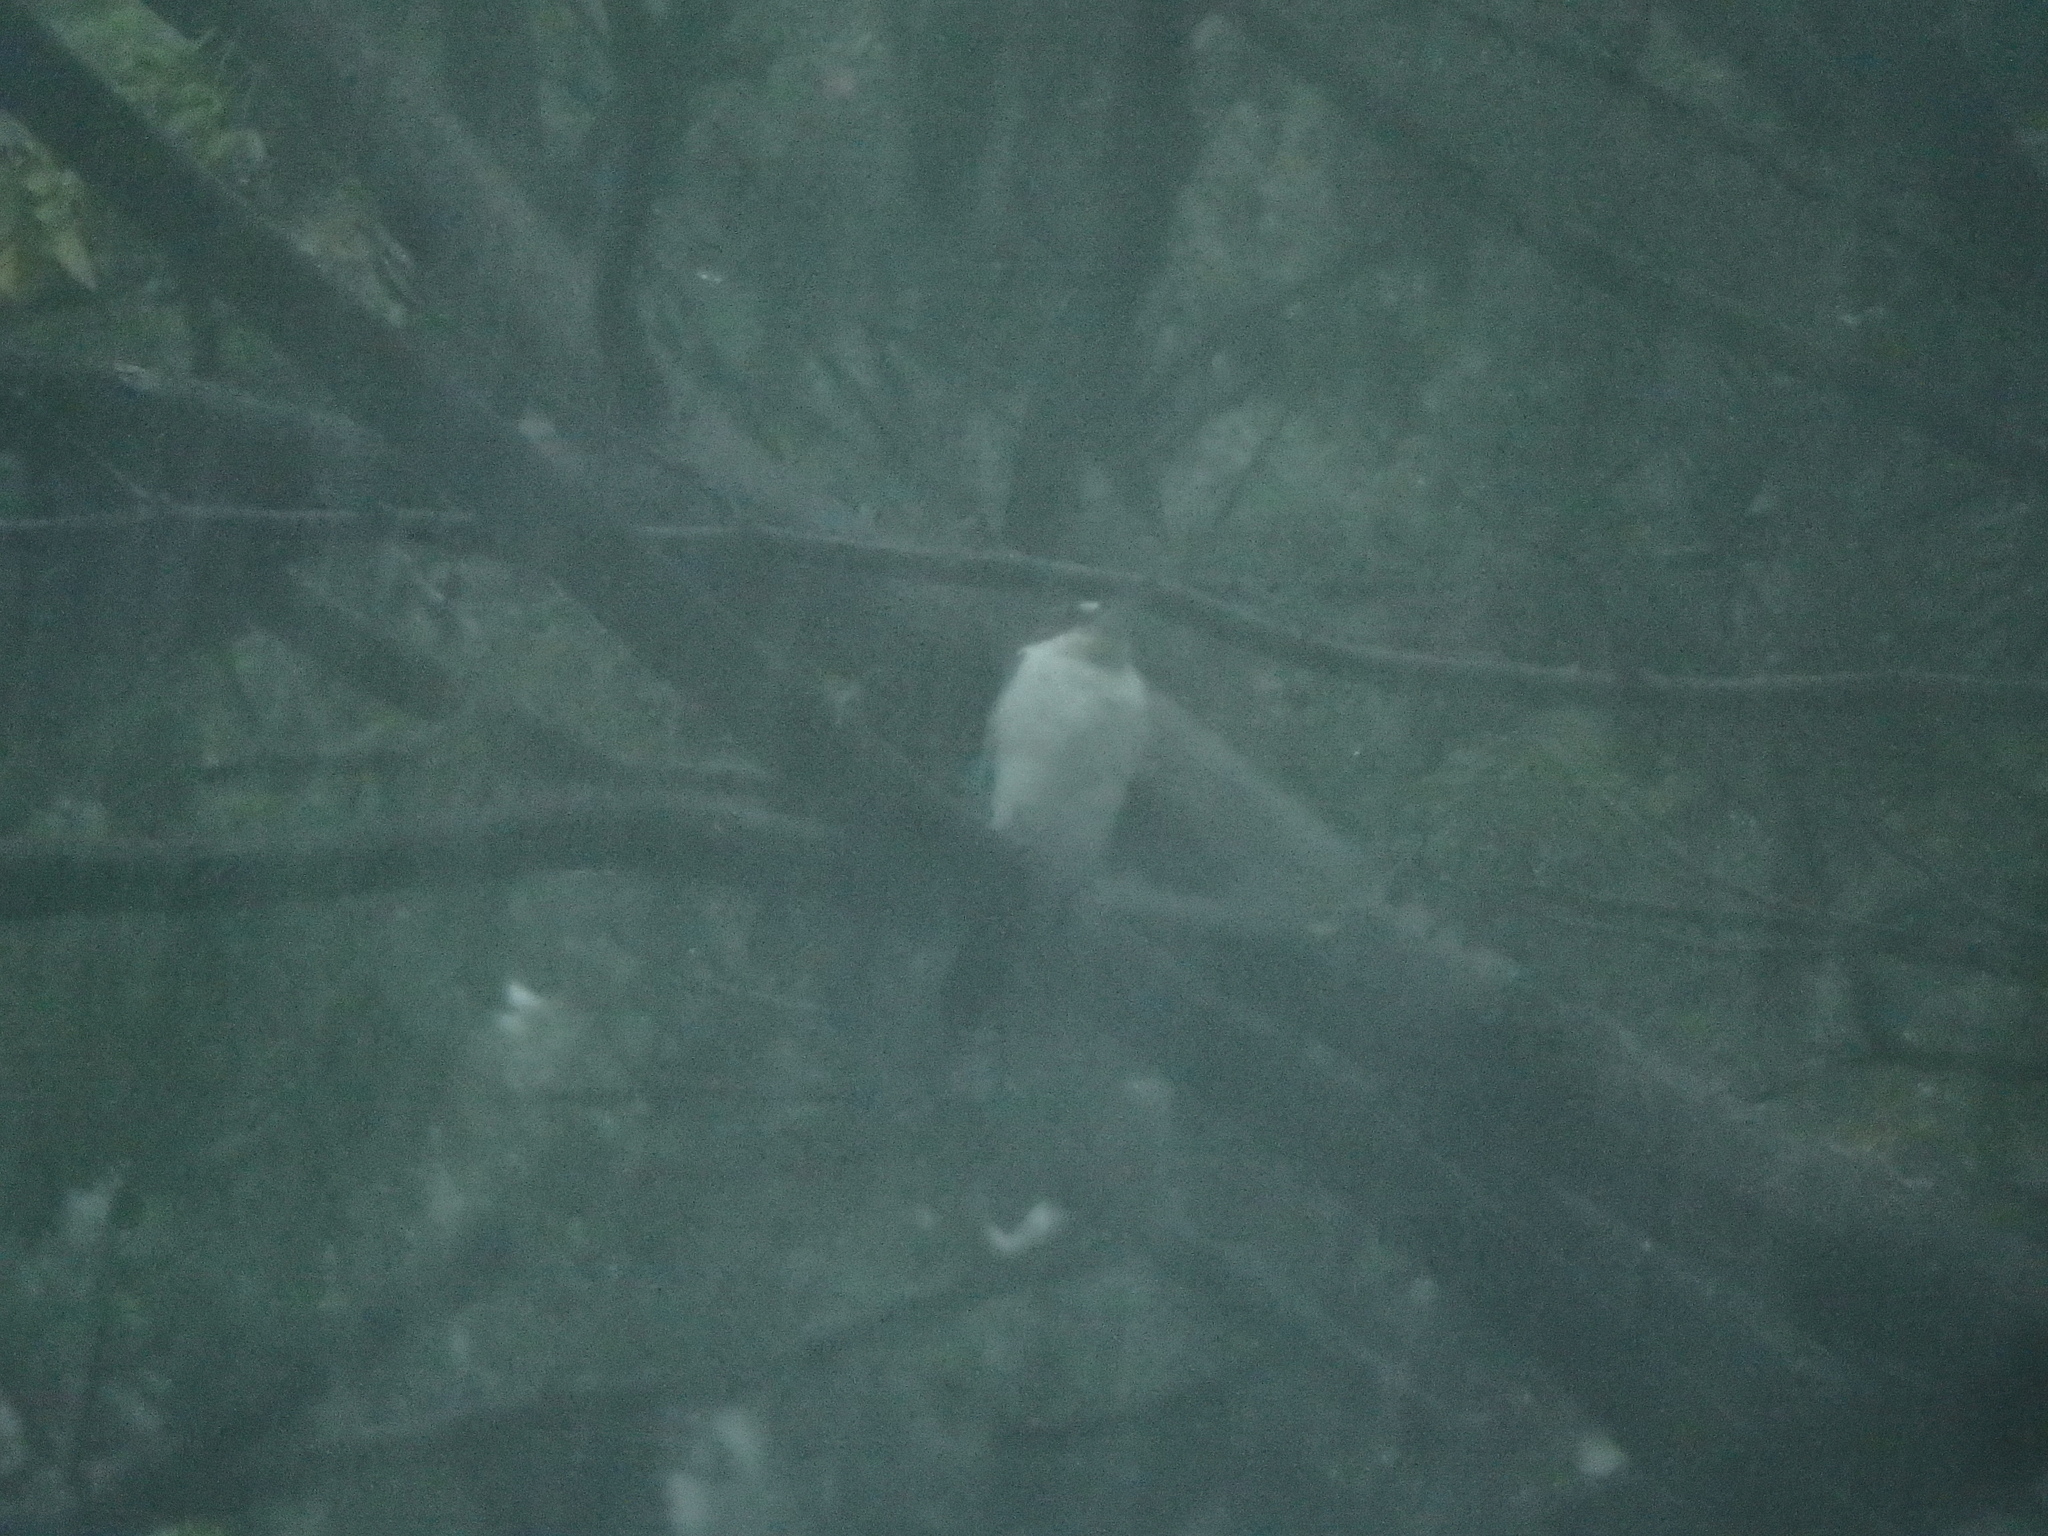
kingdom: Animalia
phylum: Chordata
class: Aves
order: Coraciiformes
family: Alcedinidae
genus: Todiramphus
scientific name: Todiramphus chloris
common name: Collared kingfisher
